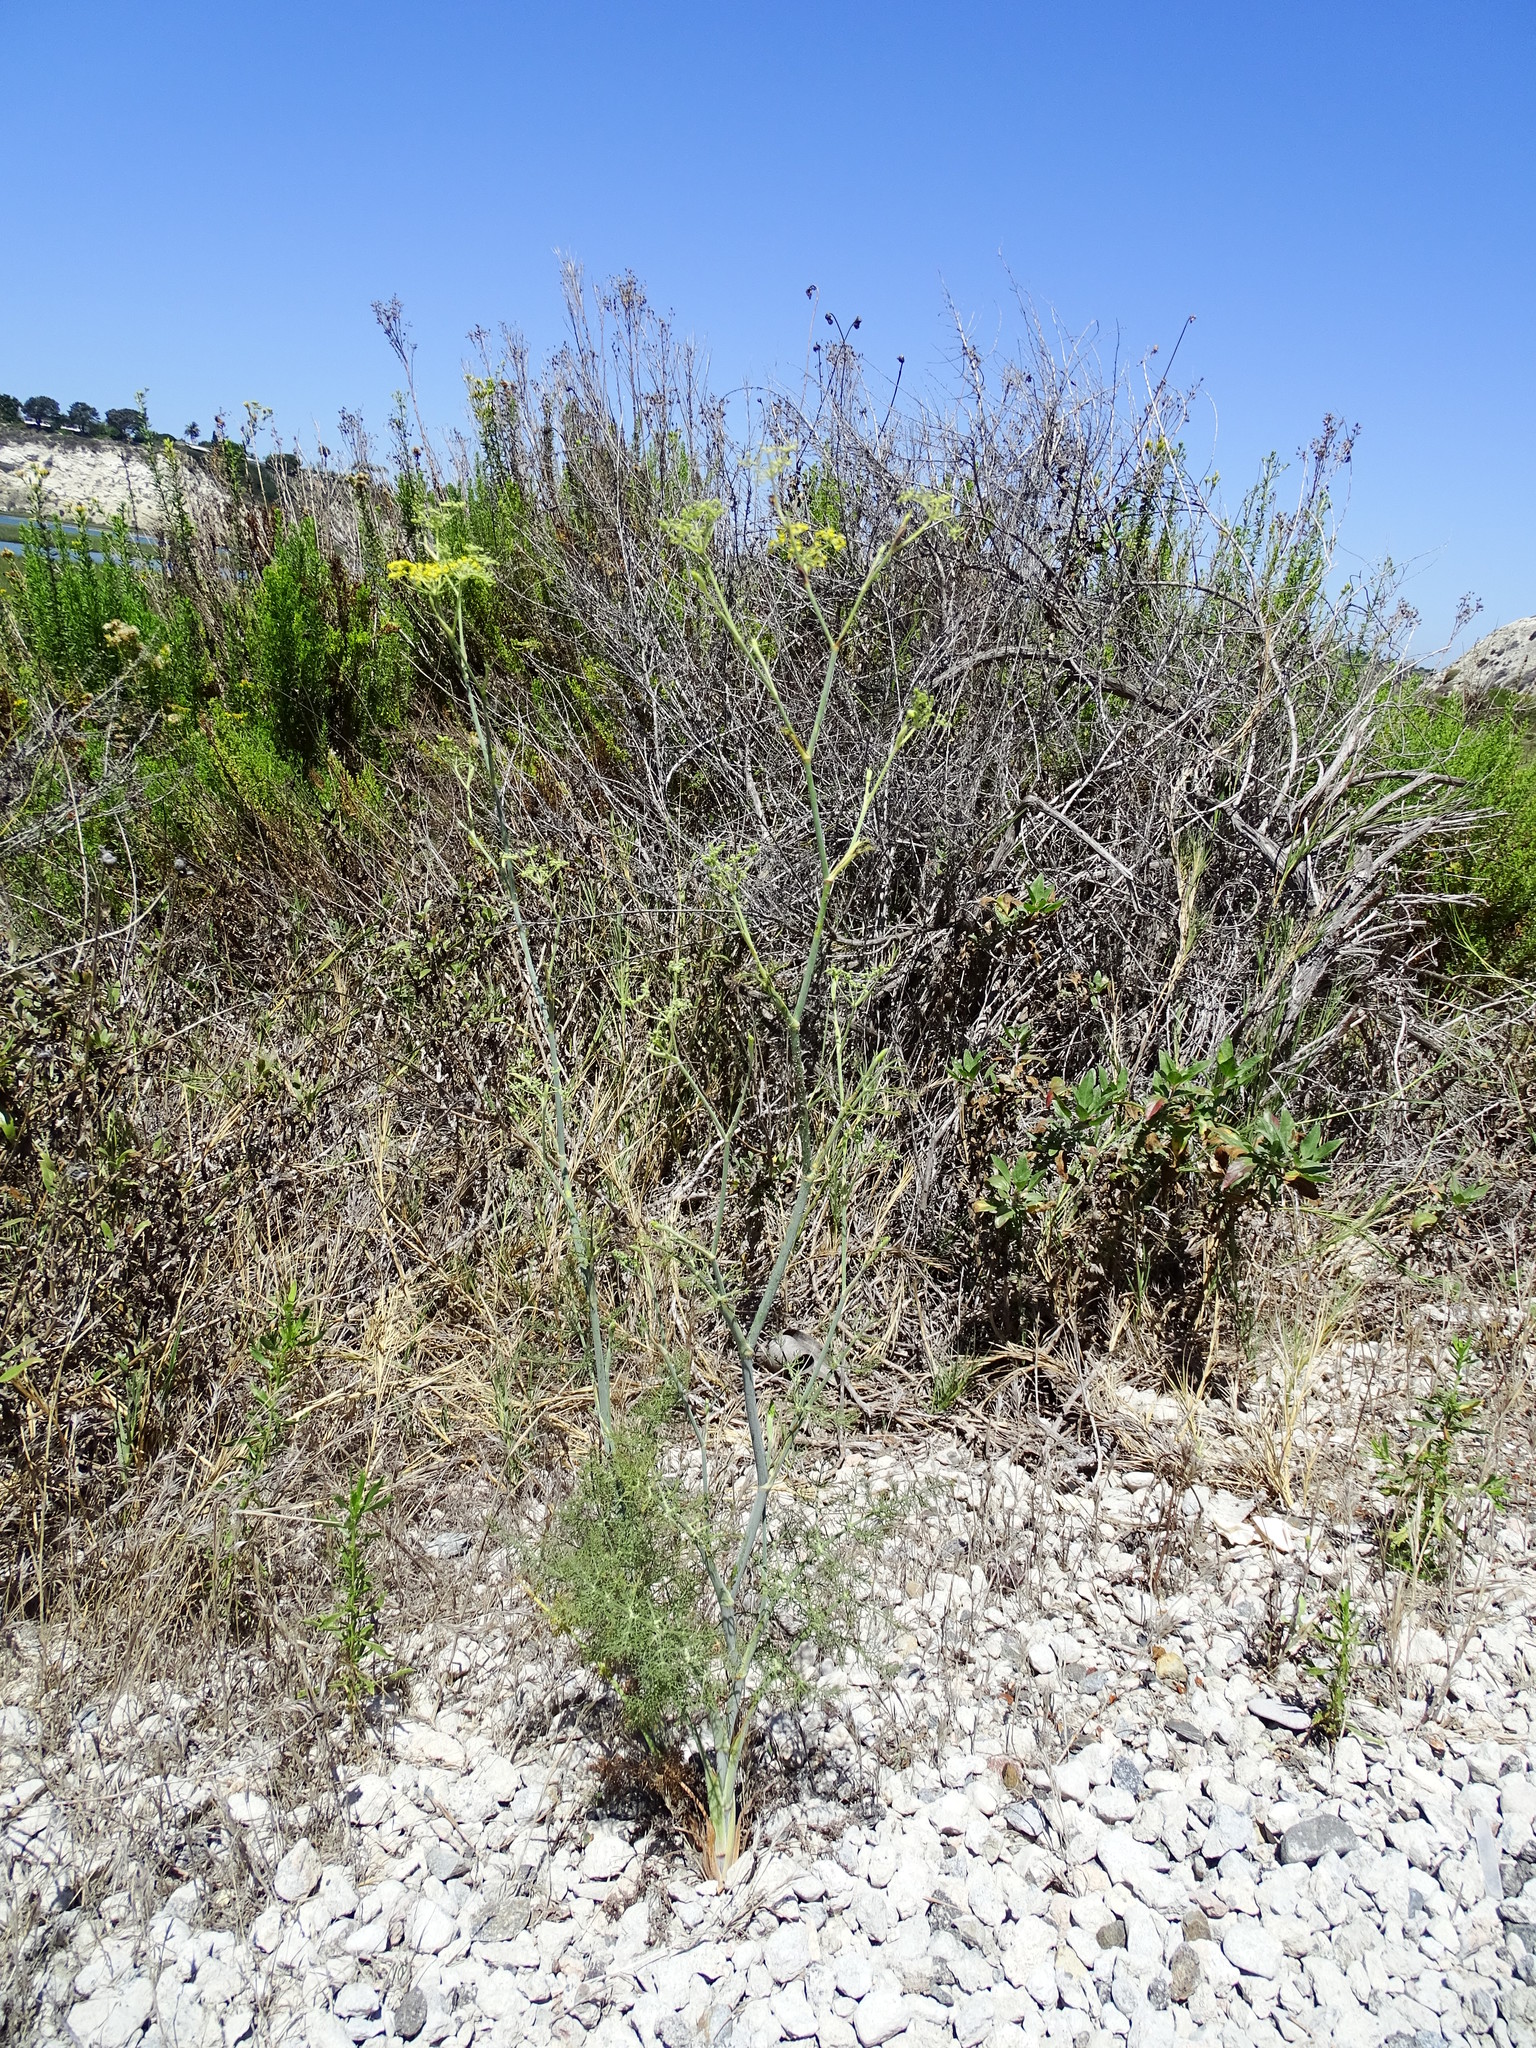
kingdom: Plantae
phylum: Tracheophyta
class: Magnoliopsida
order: Apiales
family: Apiaceae
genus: Foeniculum
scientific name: Foeniculum vulgare
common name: Fennel
